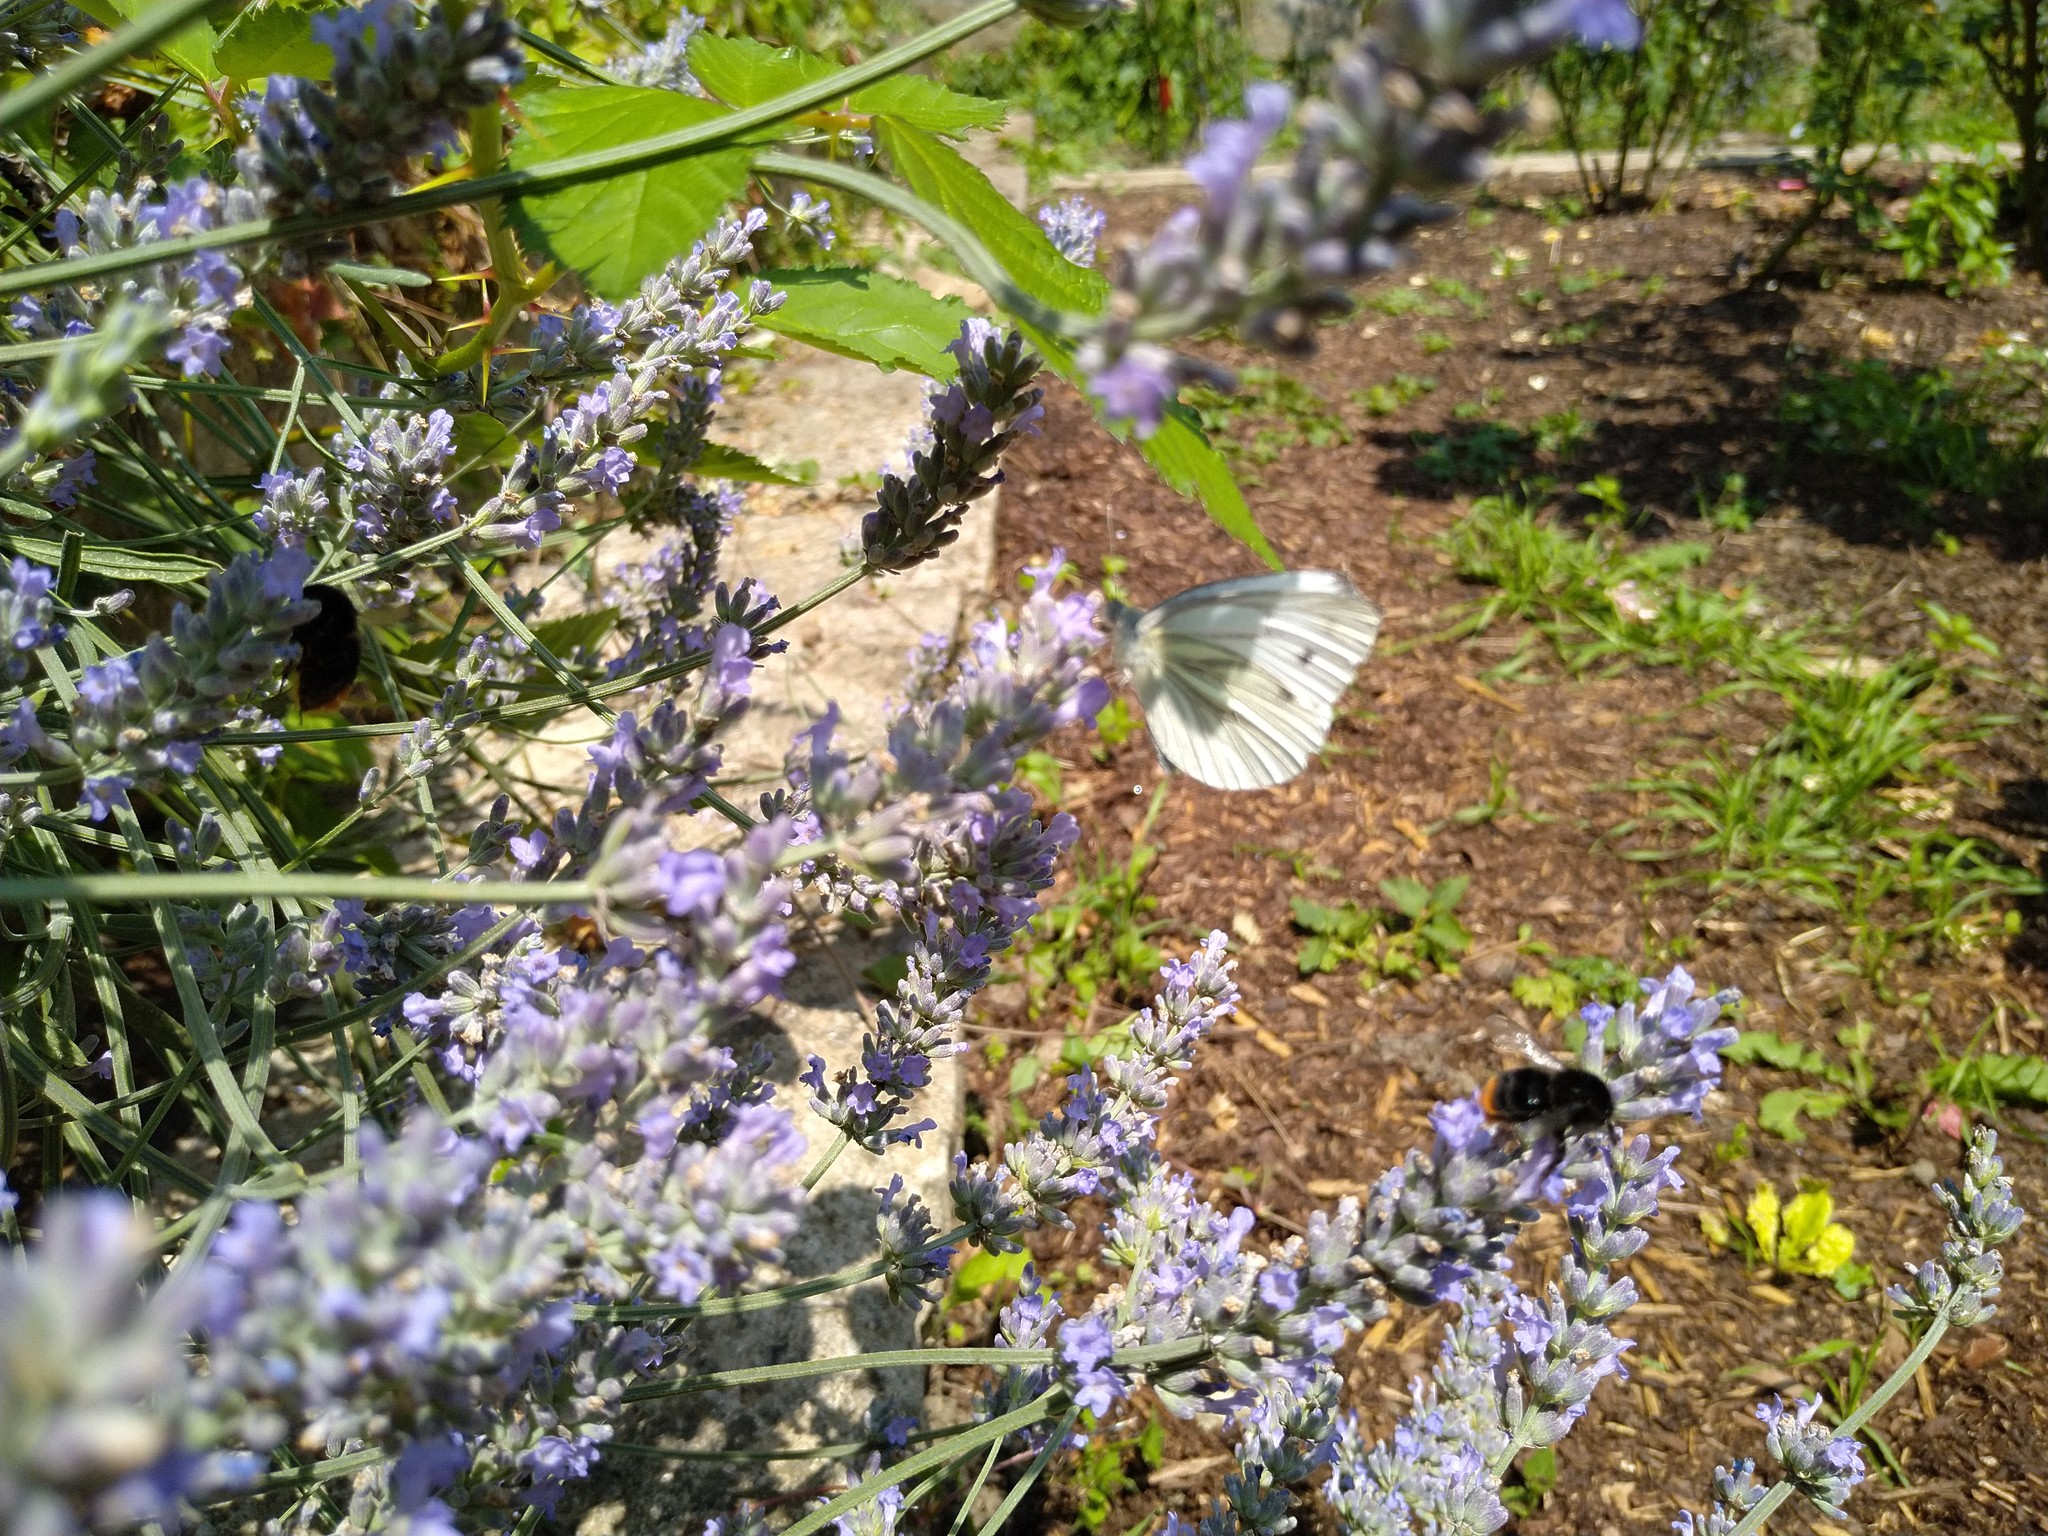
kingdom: Animalia
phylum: Arthropoda
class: Insecta
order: Lepidoptera
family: Pieridae
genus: Pieris
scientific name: Pieris napi
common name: Green-veined white
